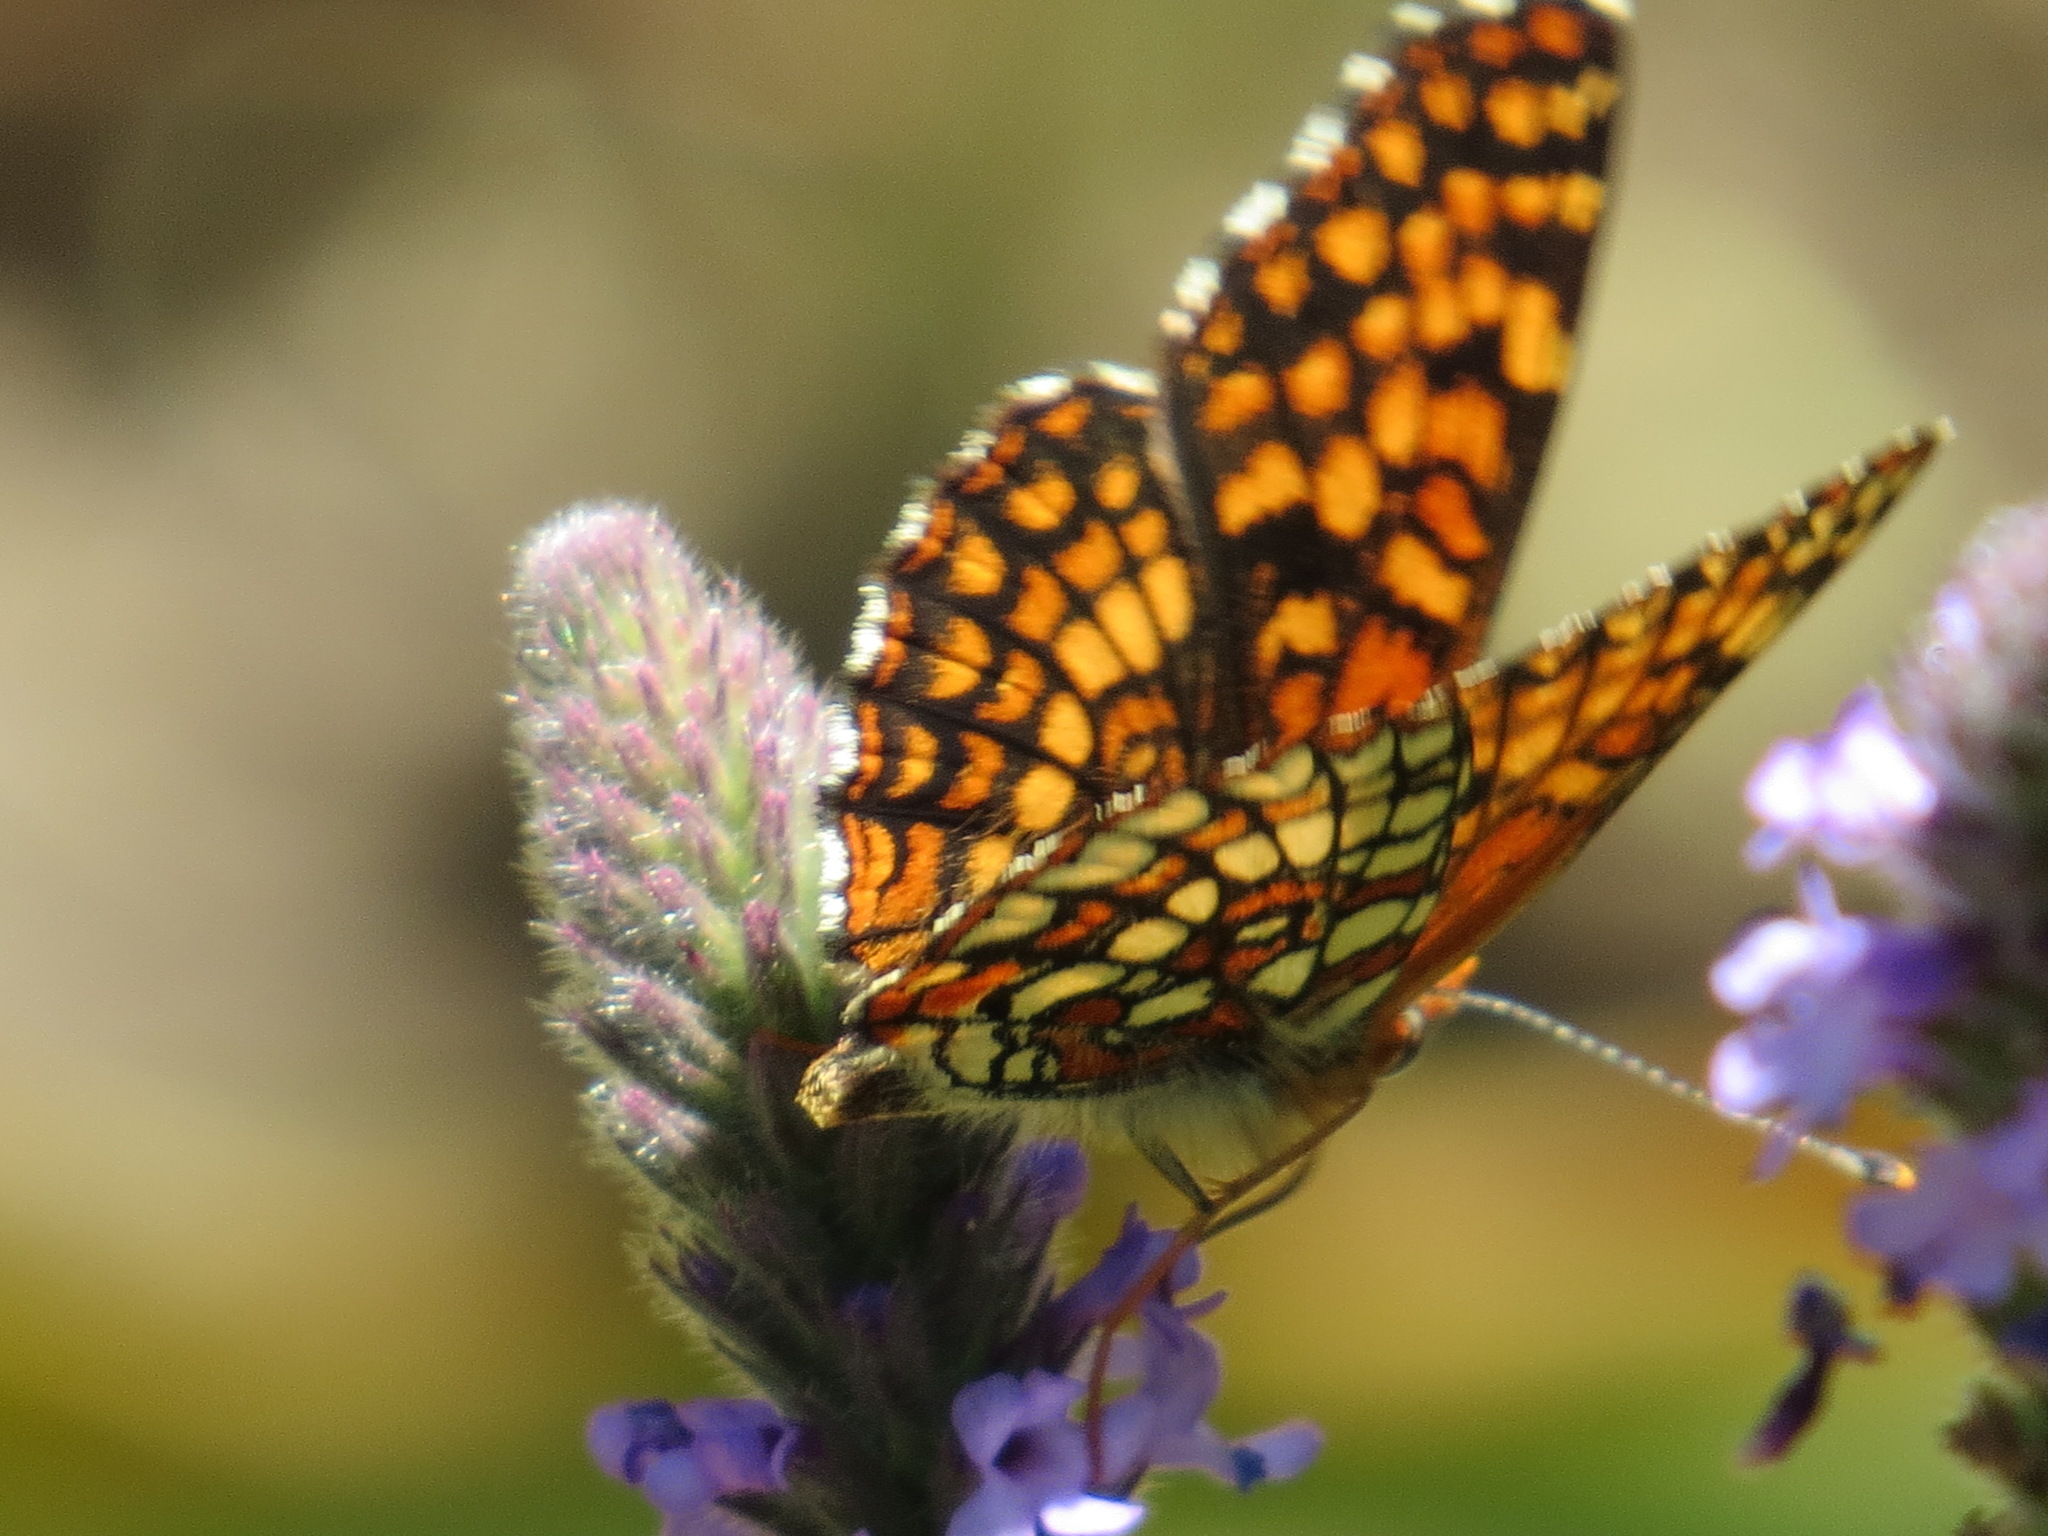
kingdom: Animalia
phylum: Arthropoda
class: Insecta
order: Lepidoptera
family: Nymphalidae
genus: Chlosyne
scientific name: Chlosyne palla
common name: Northern checkerspot
